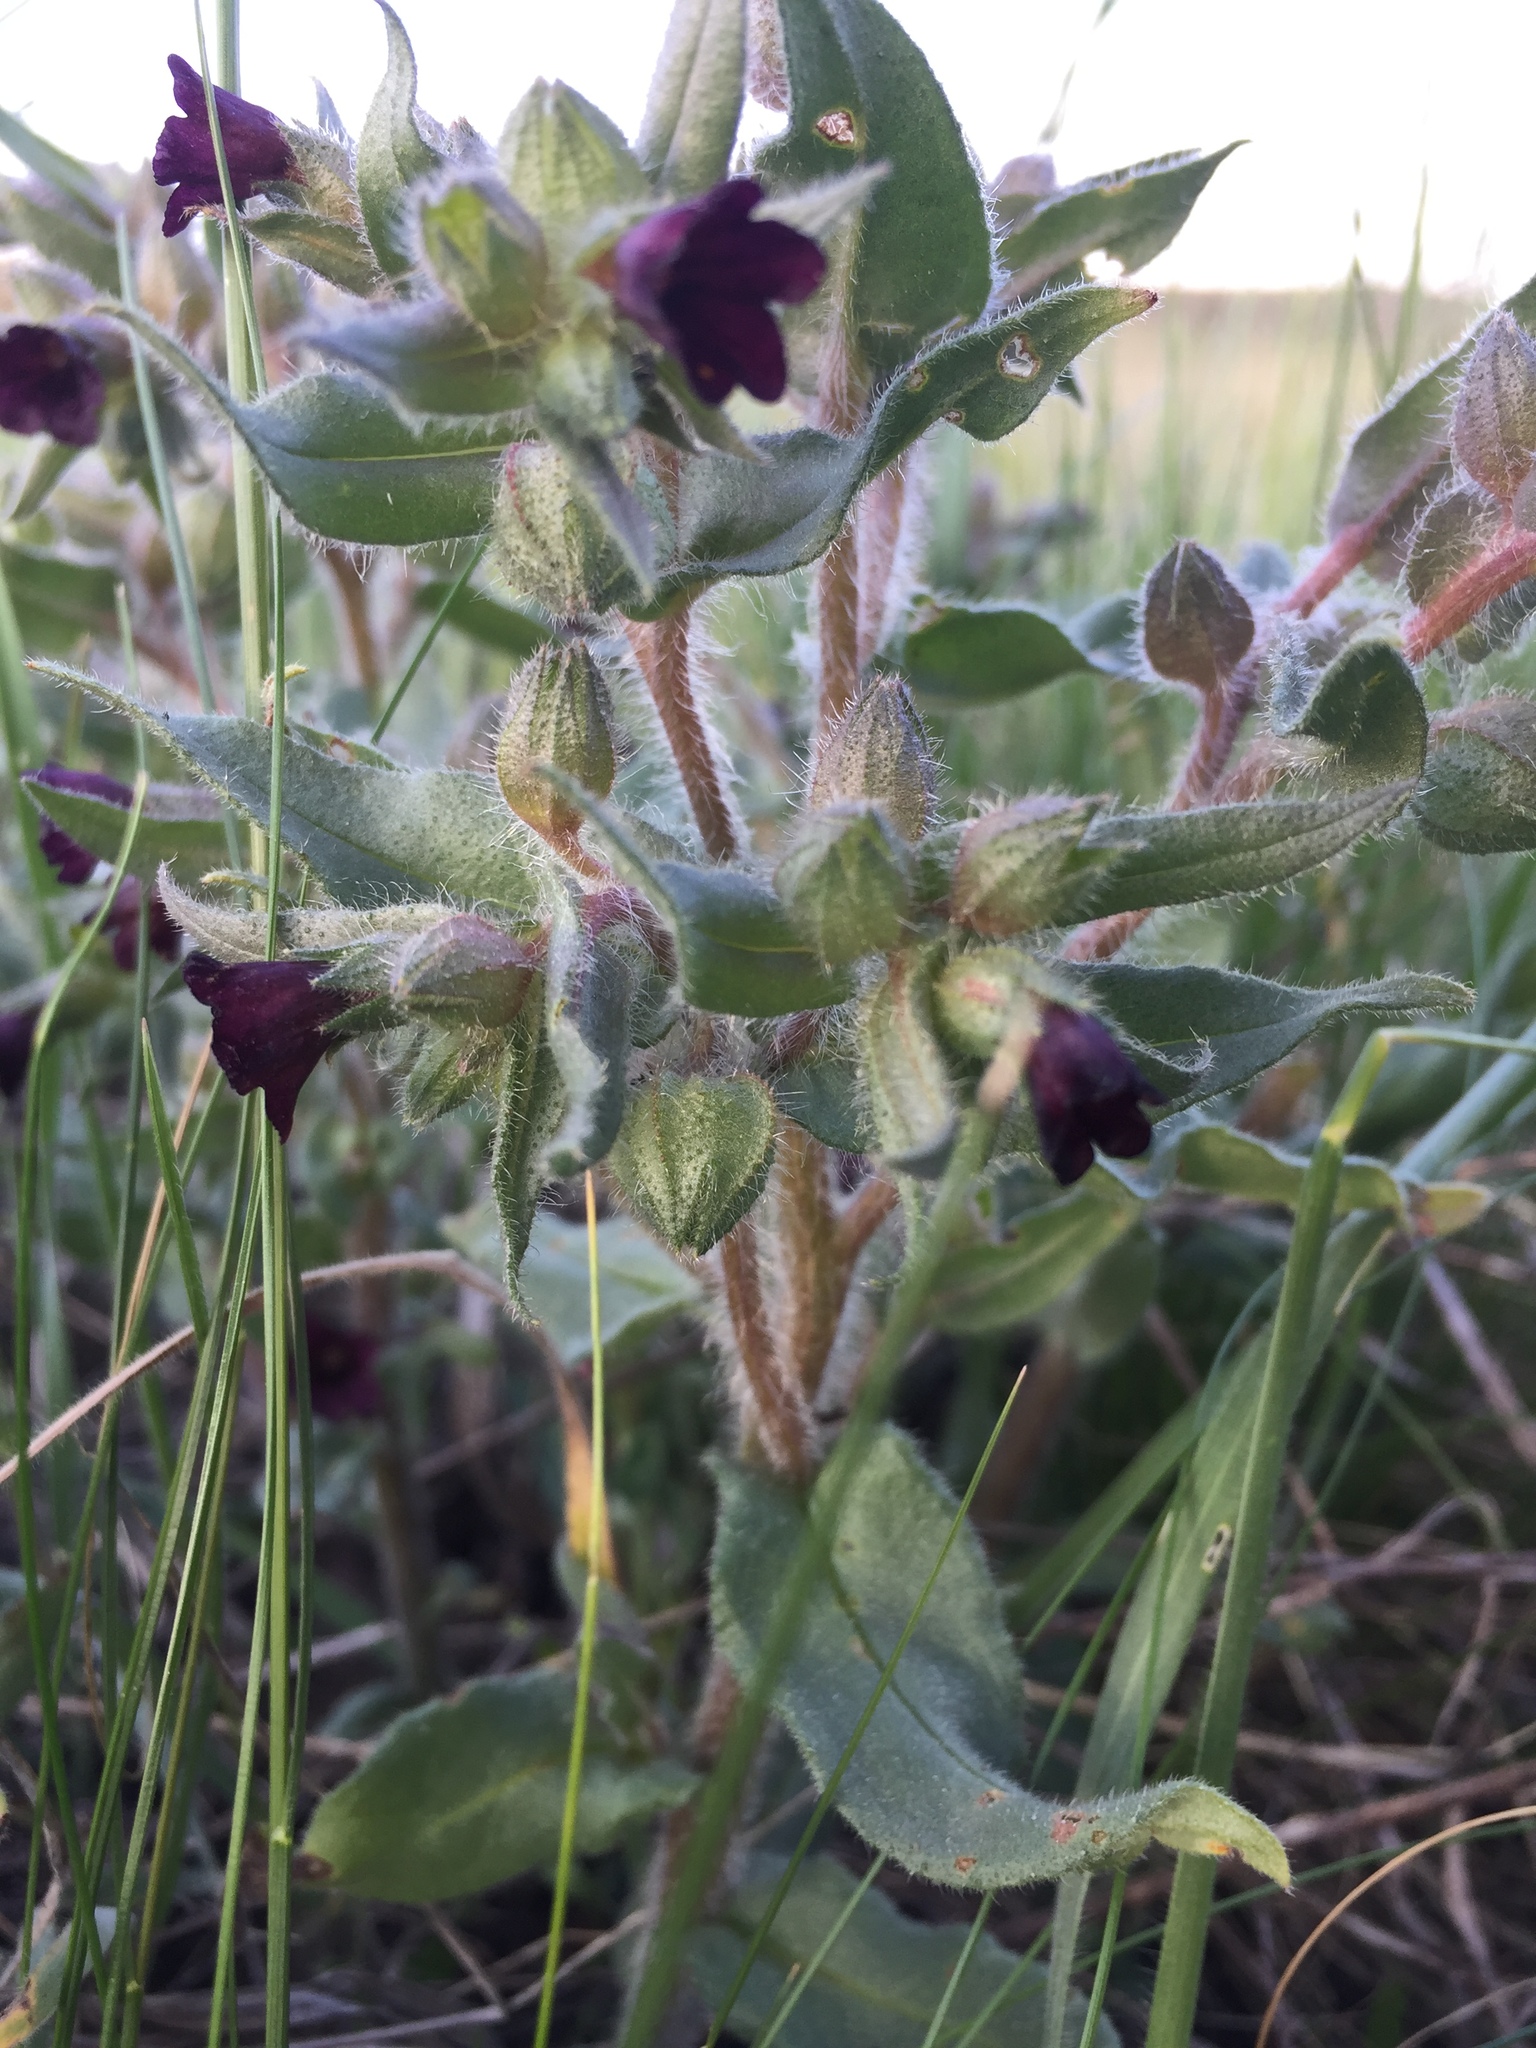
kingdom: Plantae
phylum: Tracheophyta
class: Magnoliopsida
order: Boraginales
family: Boraginaceae
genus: Nonea
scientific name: Nonea pulla
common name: Brown nonea
